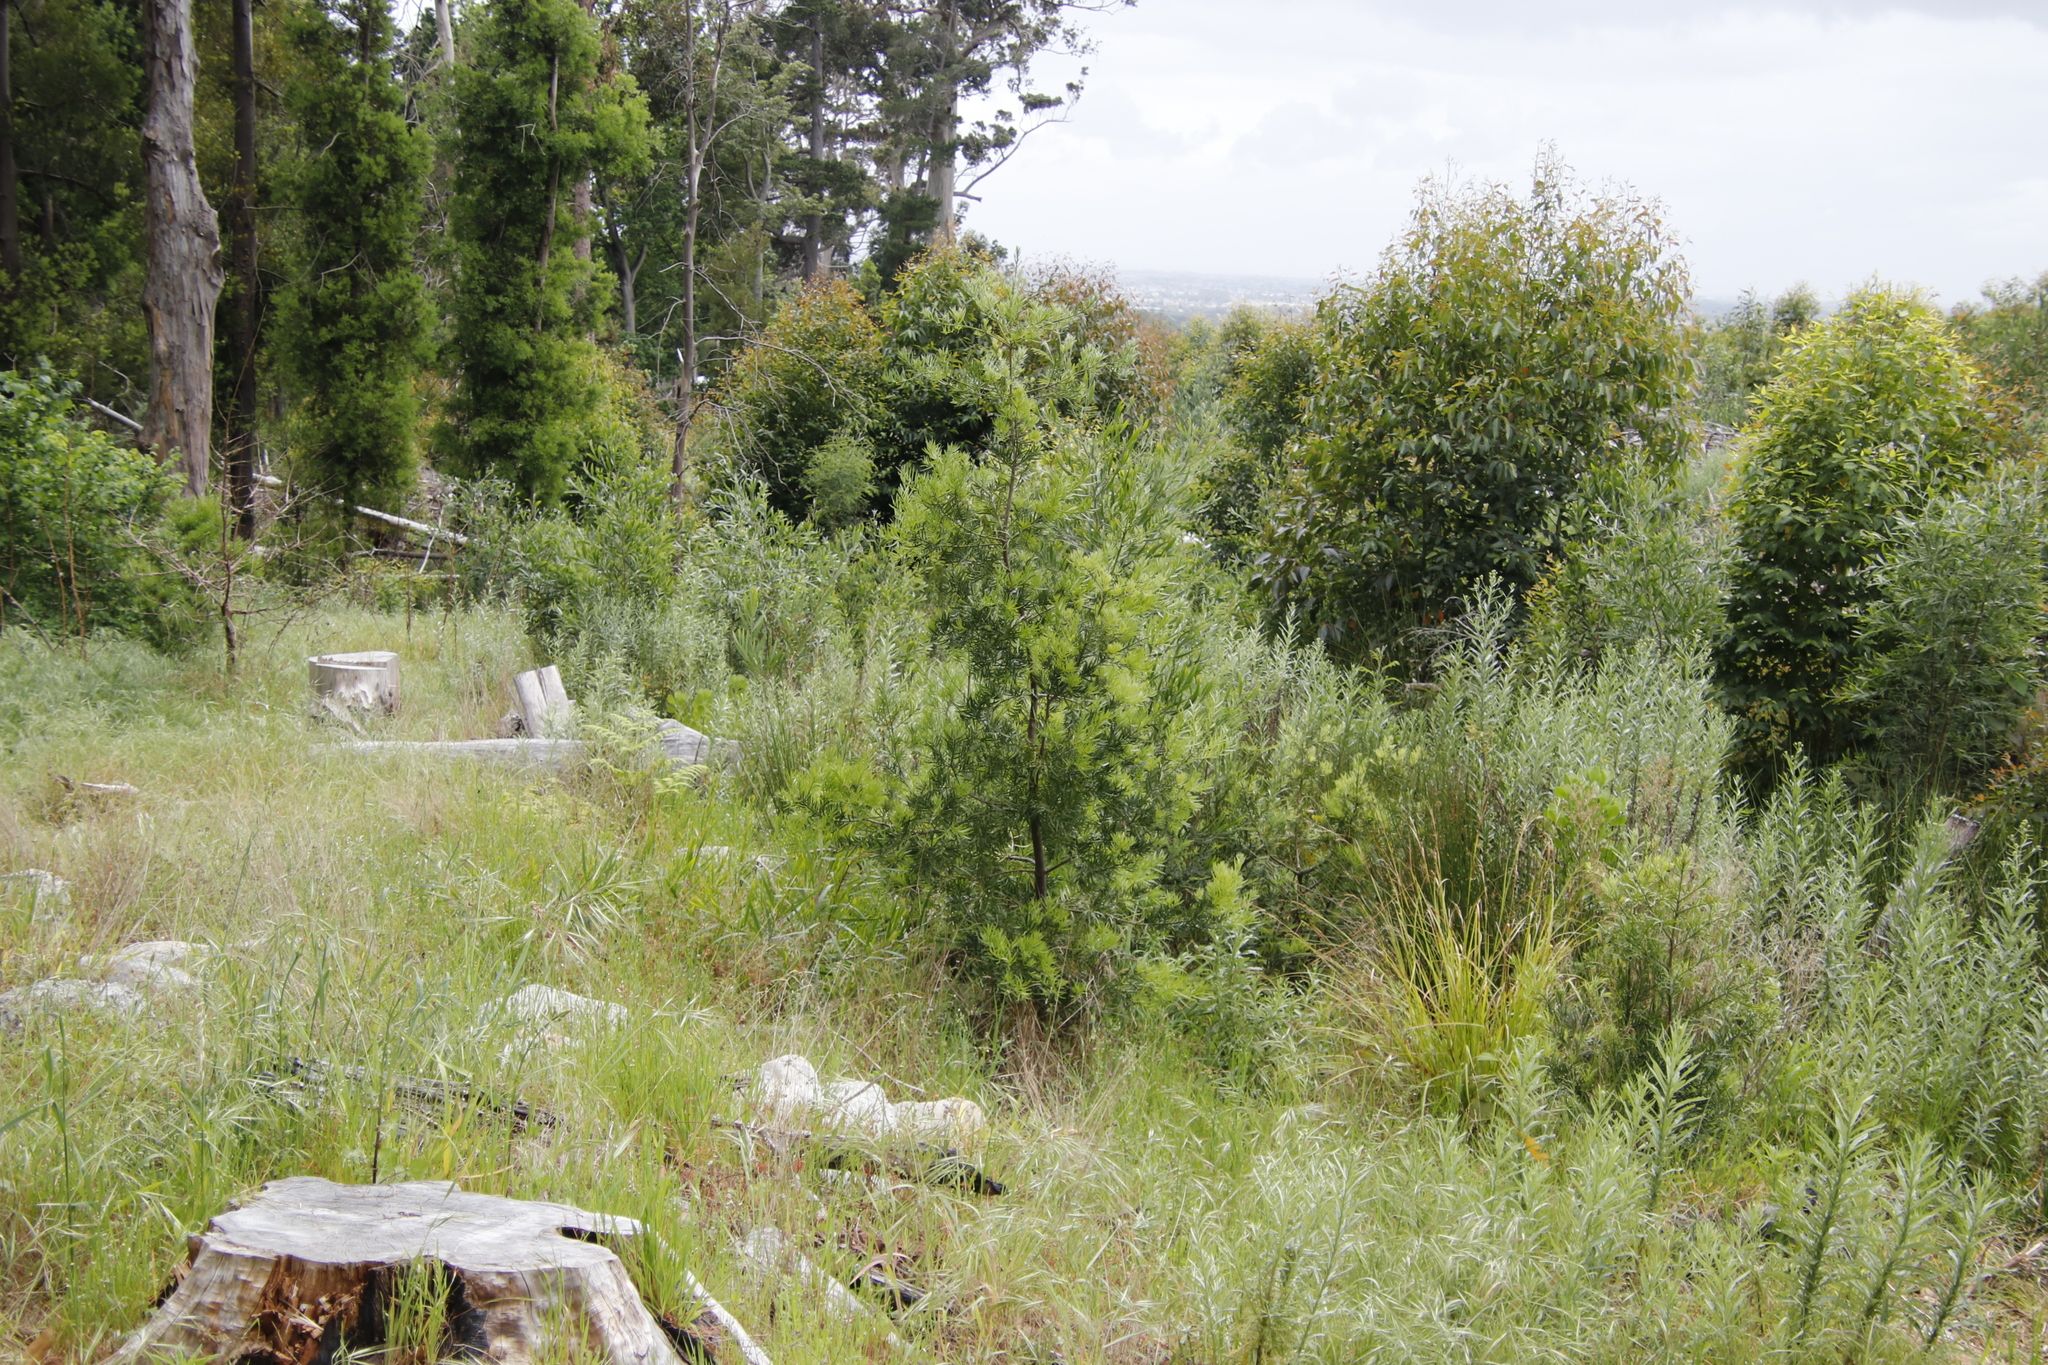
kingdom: Plantae
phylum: Tracheophyta
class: Pinopsida
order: Pinales
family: Podocarpaceae
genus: Afrocarpus
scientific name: Afrocarpus falcatus
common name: Bastard yellowwood
